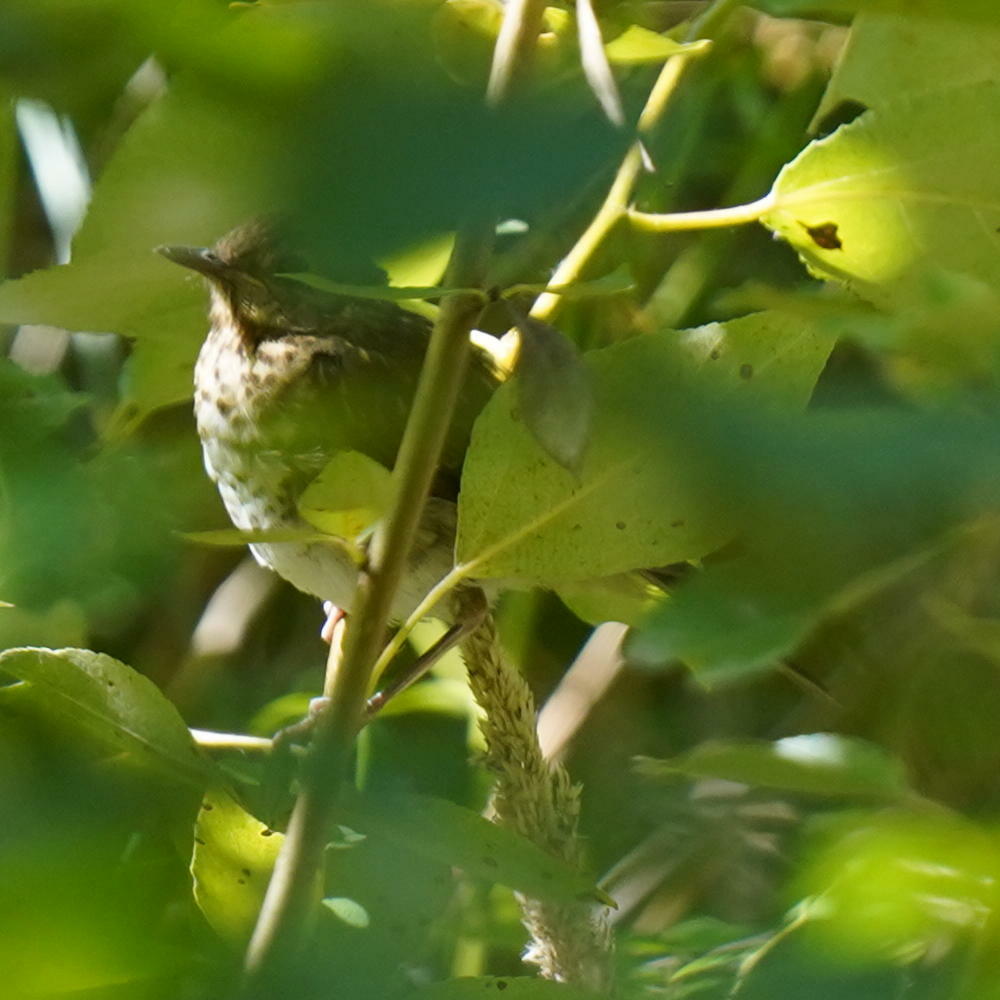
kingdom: Animalia
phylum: Chordata
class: Aves
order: Passeriformes
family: Turdidae
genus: Catharus
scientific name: Catharus ustulatus
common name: Swainson's thrush
